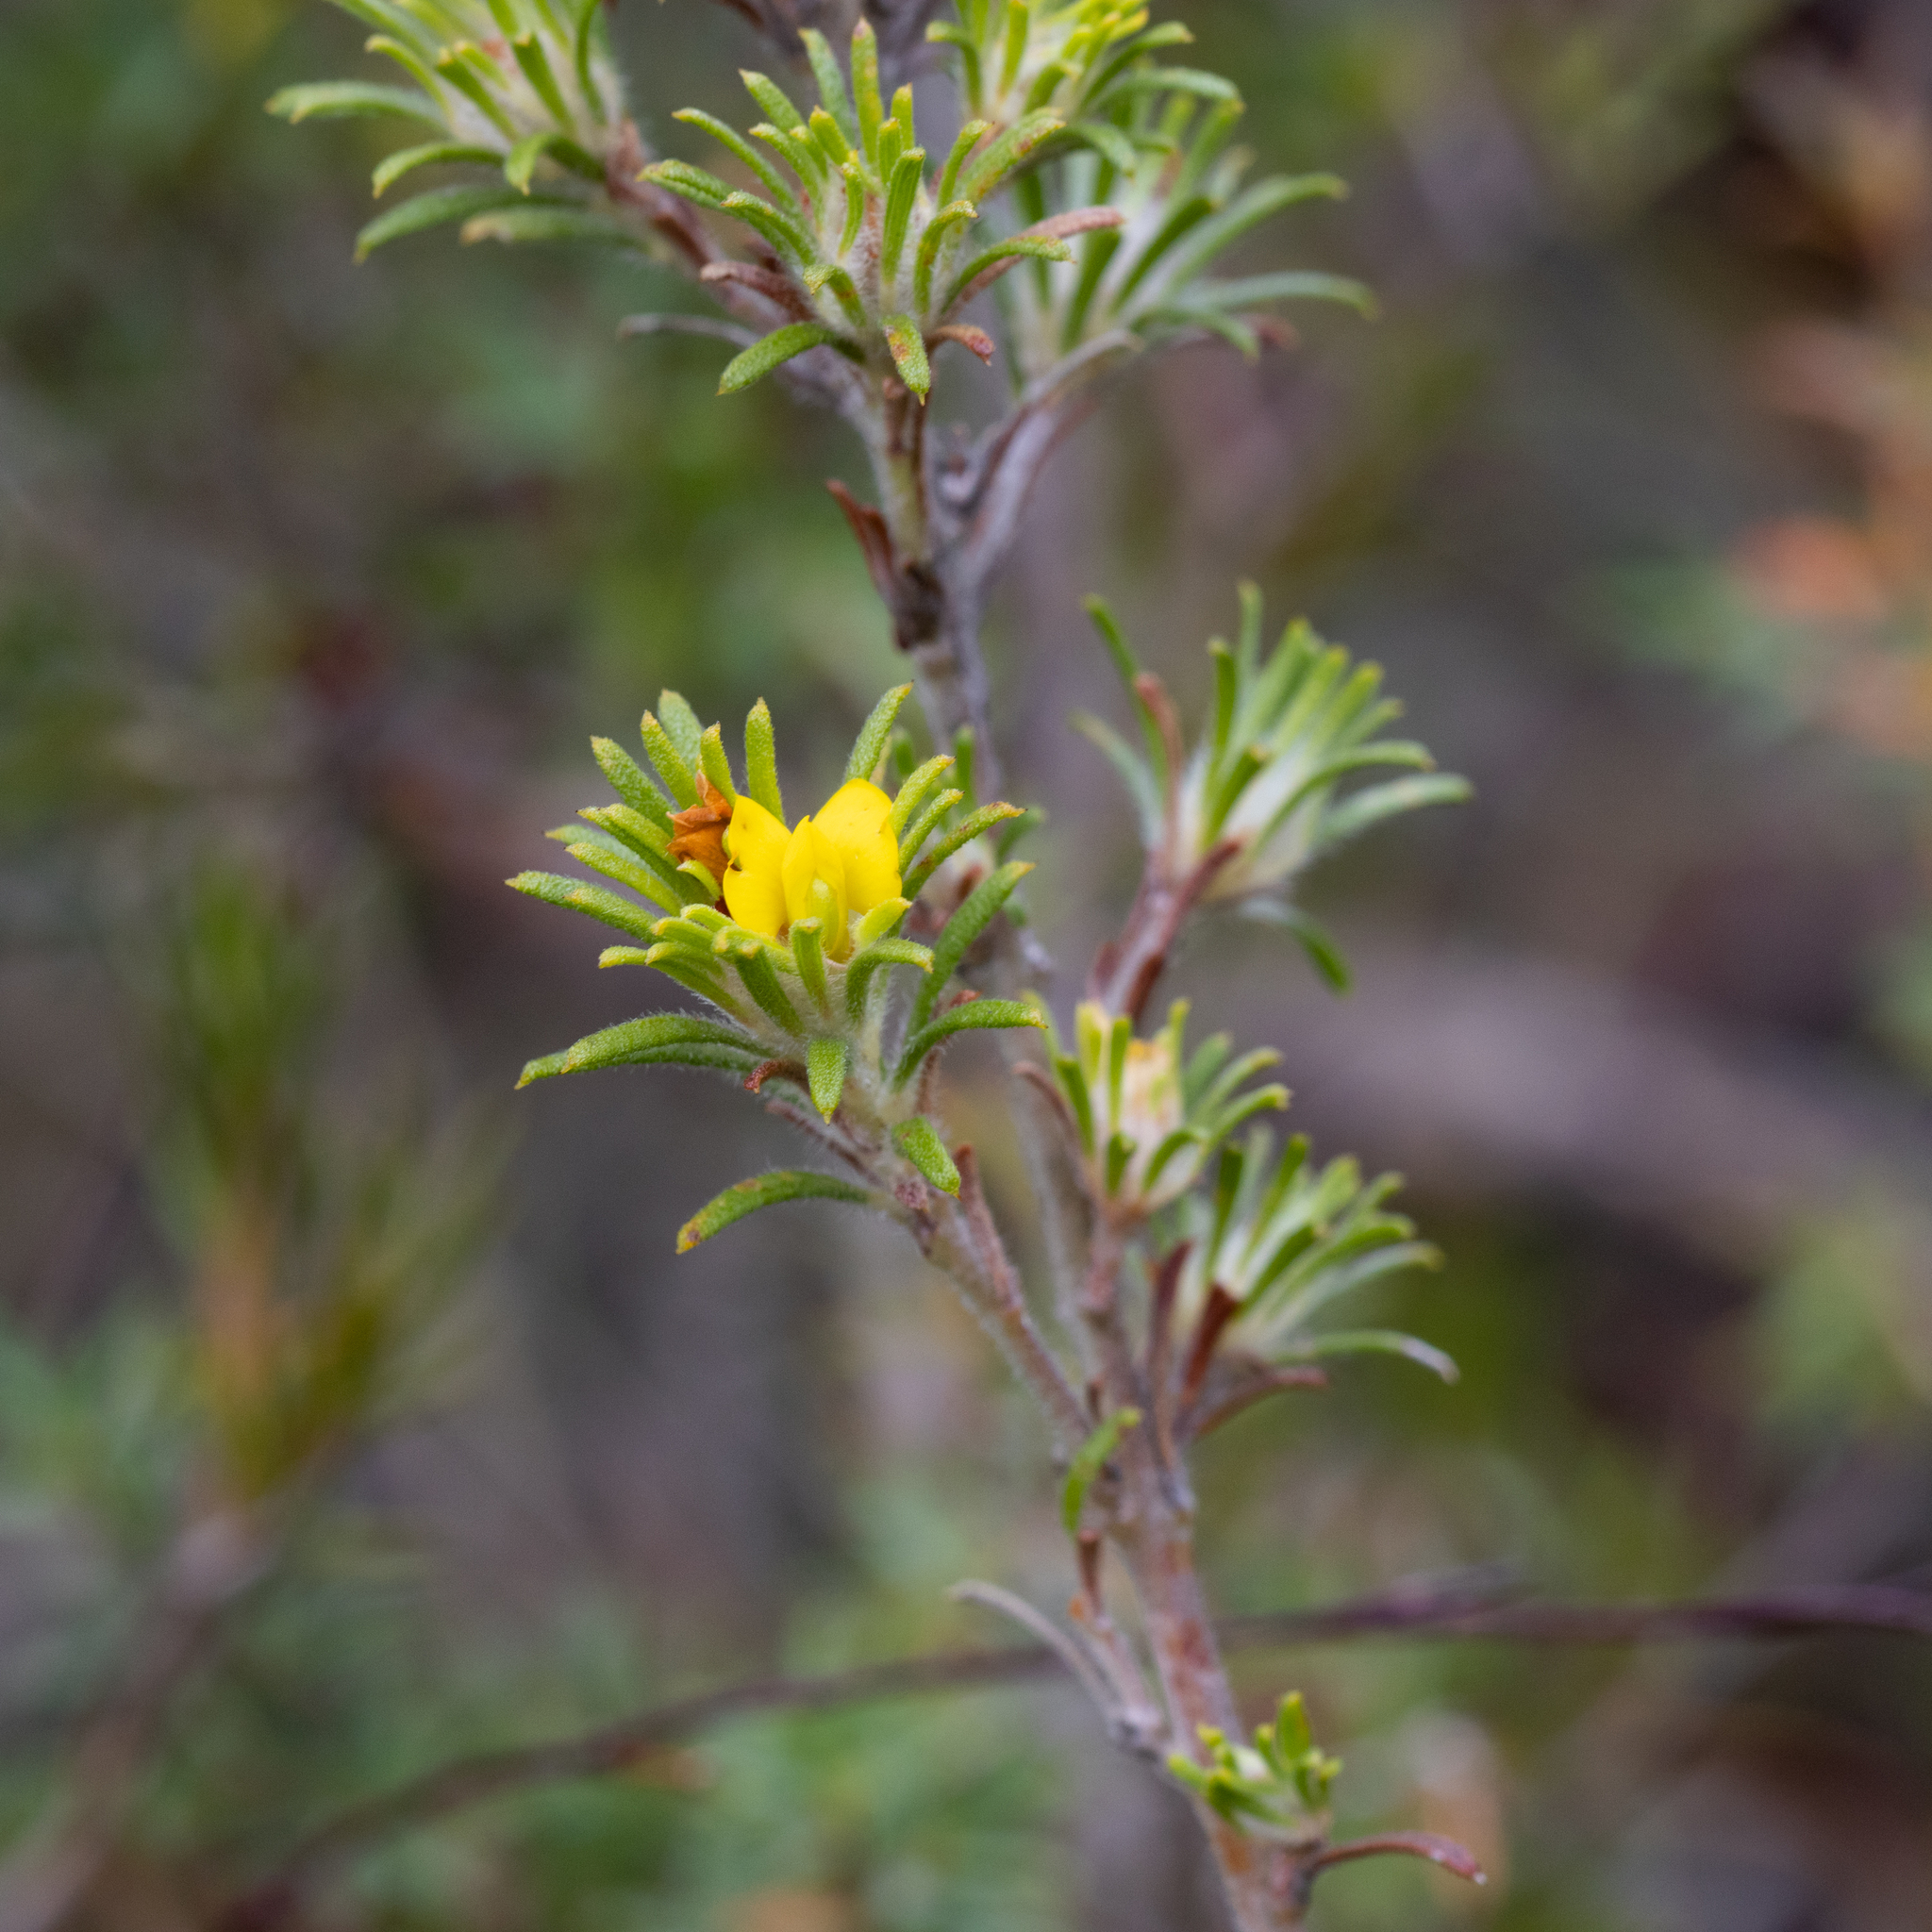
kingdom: Plantae
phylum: Tracheophyta
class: Magnoliopsida
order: Fabales
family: Fabaceae
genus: Phyllota
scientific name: Phyllota pleurandroides
